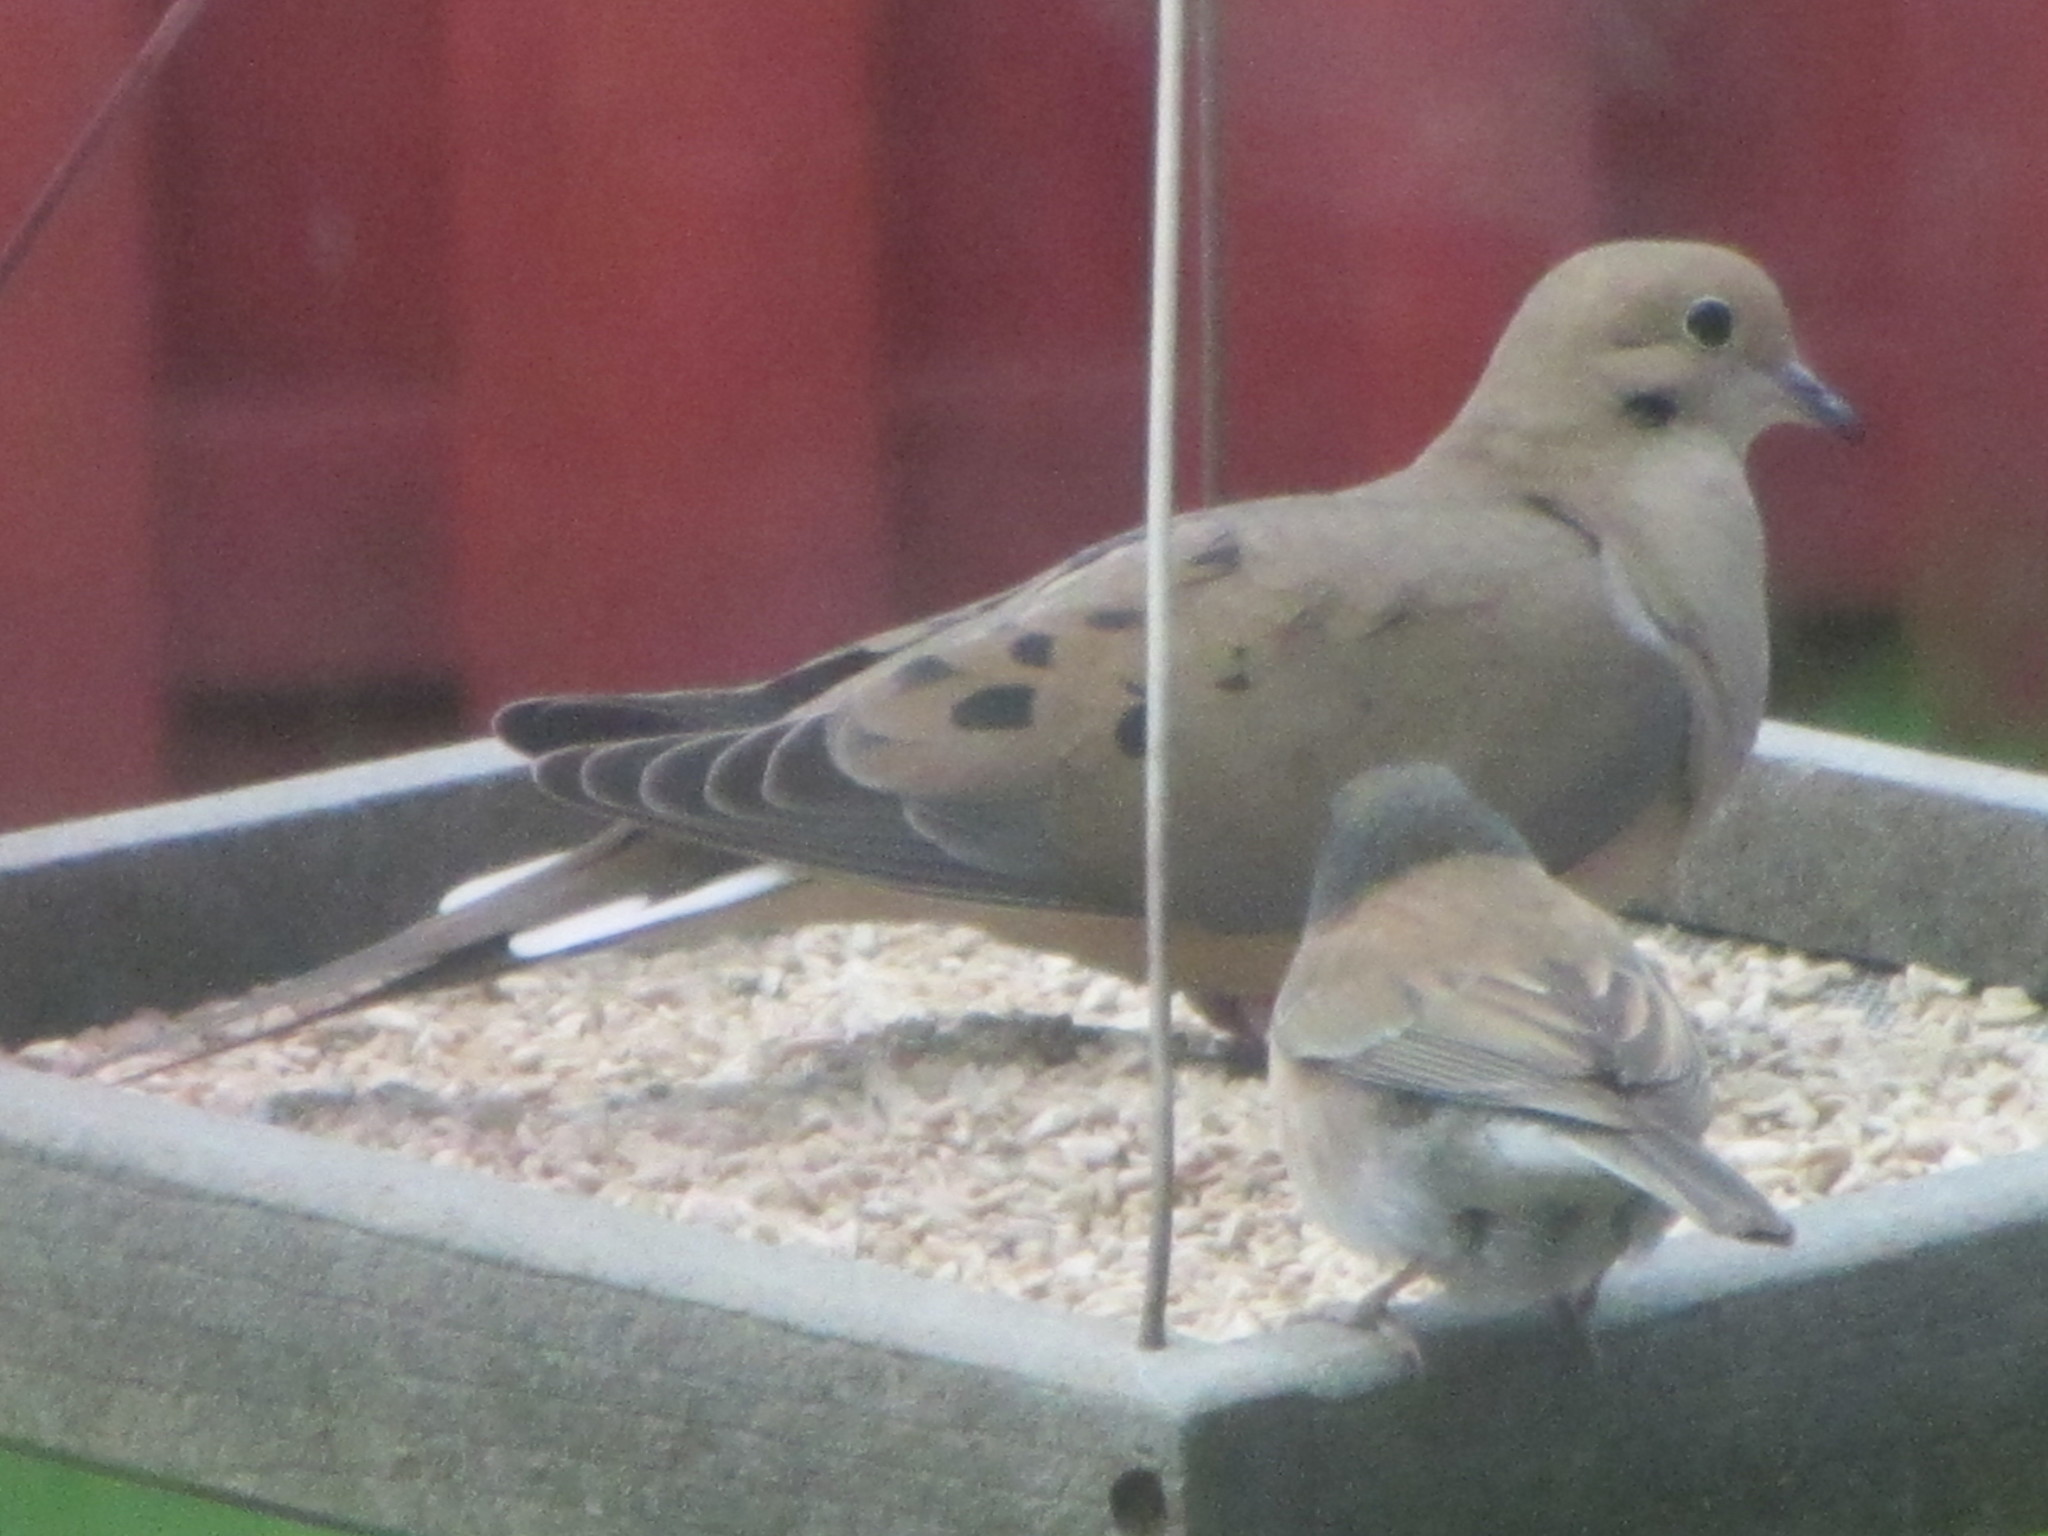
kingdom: Animalia
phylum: Chordata
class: Aves
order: Columbiformes
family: Columbidae
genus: Zenaida
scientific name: Zenaida macroura
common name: Mourning dove
